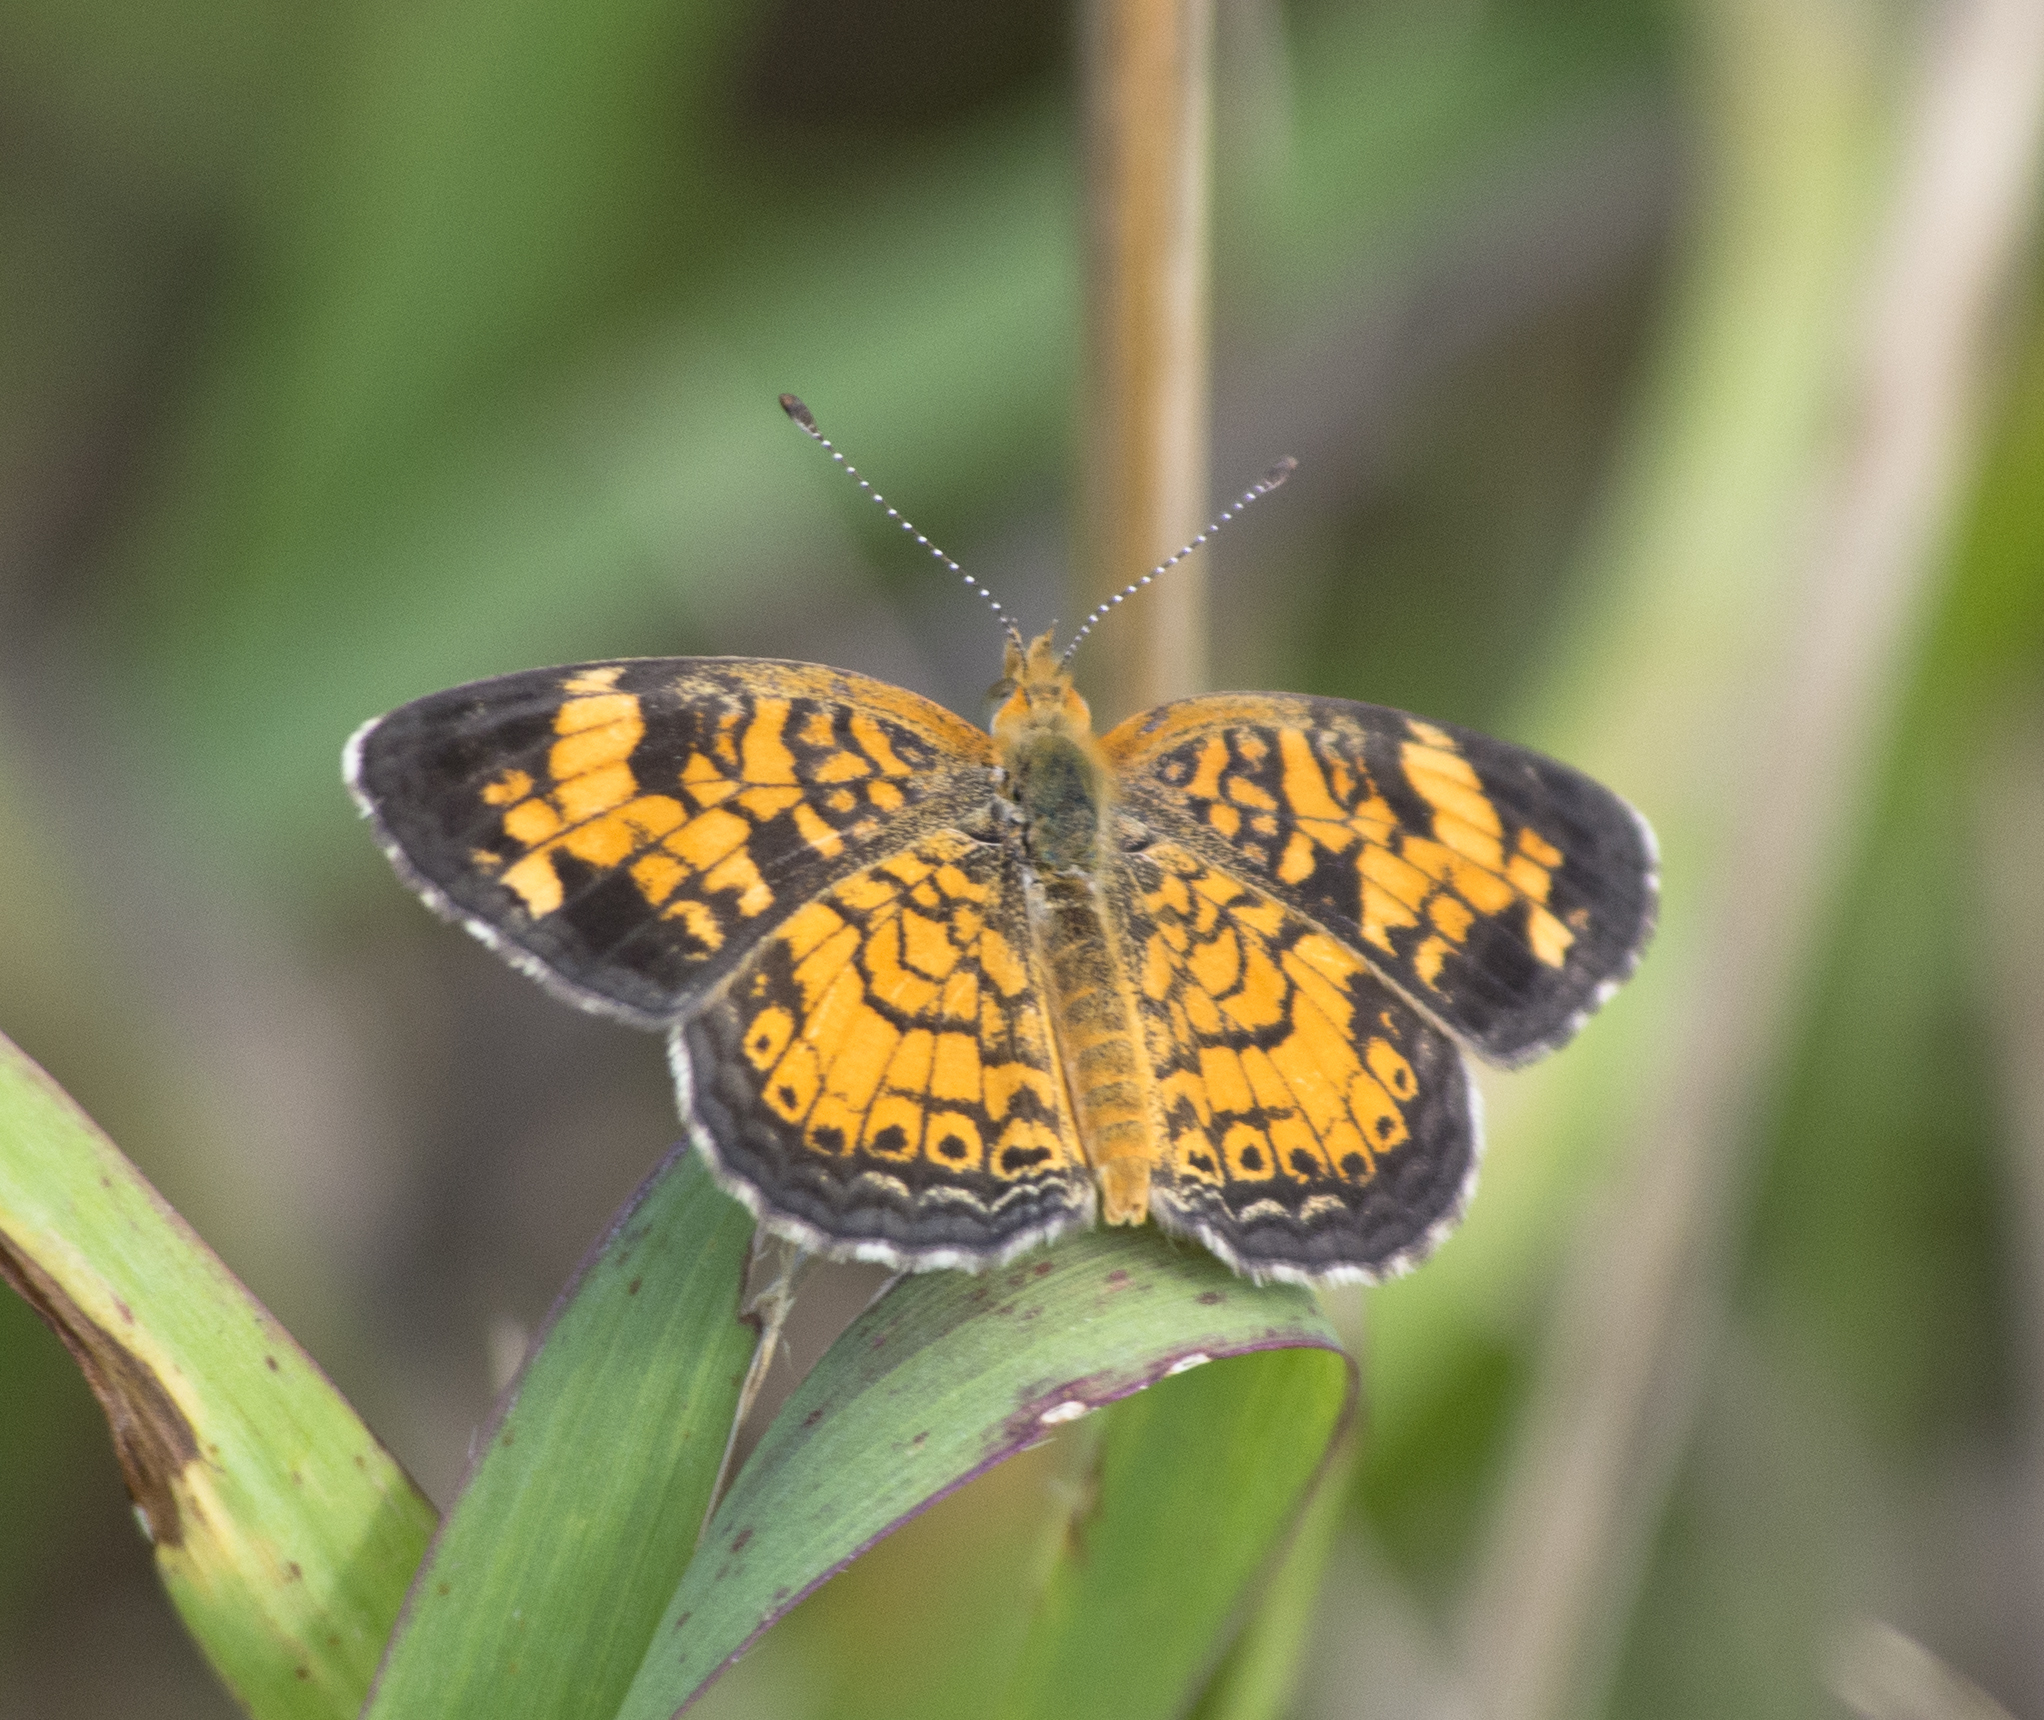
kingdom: Animalia
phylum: Arthropoda
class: Insecta
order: Lepidoptera
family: Nymphalidae
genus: Phyciodes
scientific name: Phyciodes tharos
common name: Pearl crescent
